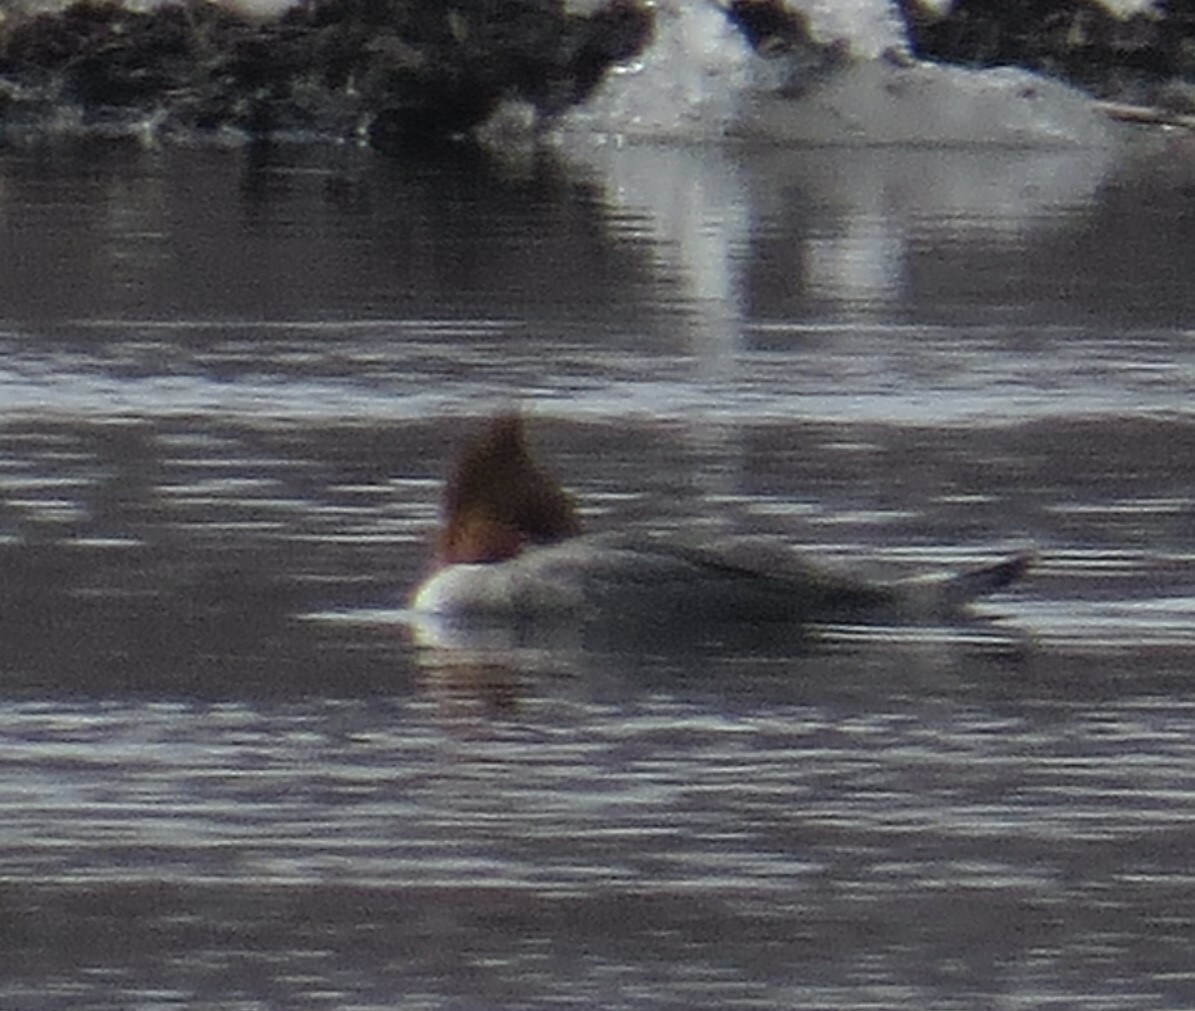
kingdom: Animalia
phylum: Chordata
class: Aves
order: Anseriformes
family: Anatidae
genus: Mergus
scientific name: Mergus merganser
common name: Common merganser
